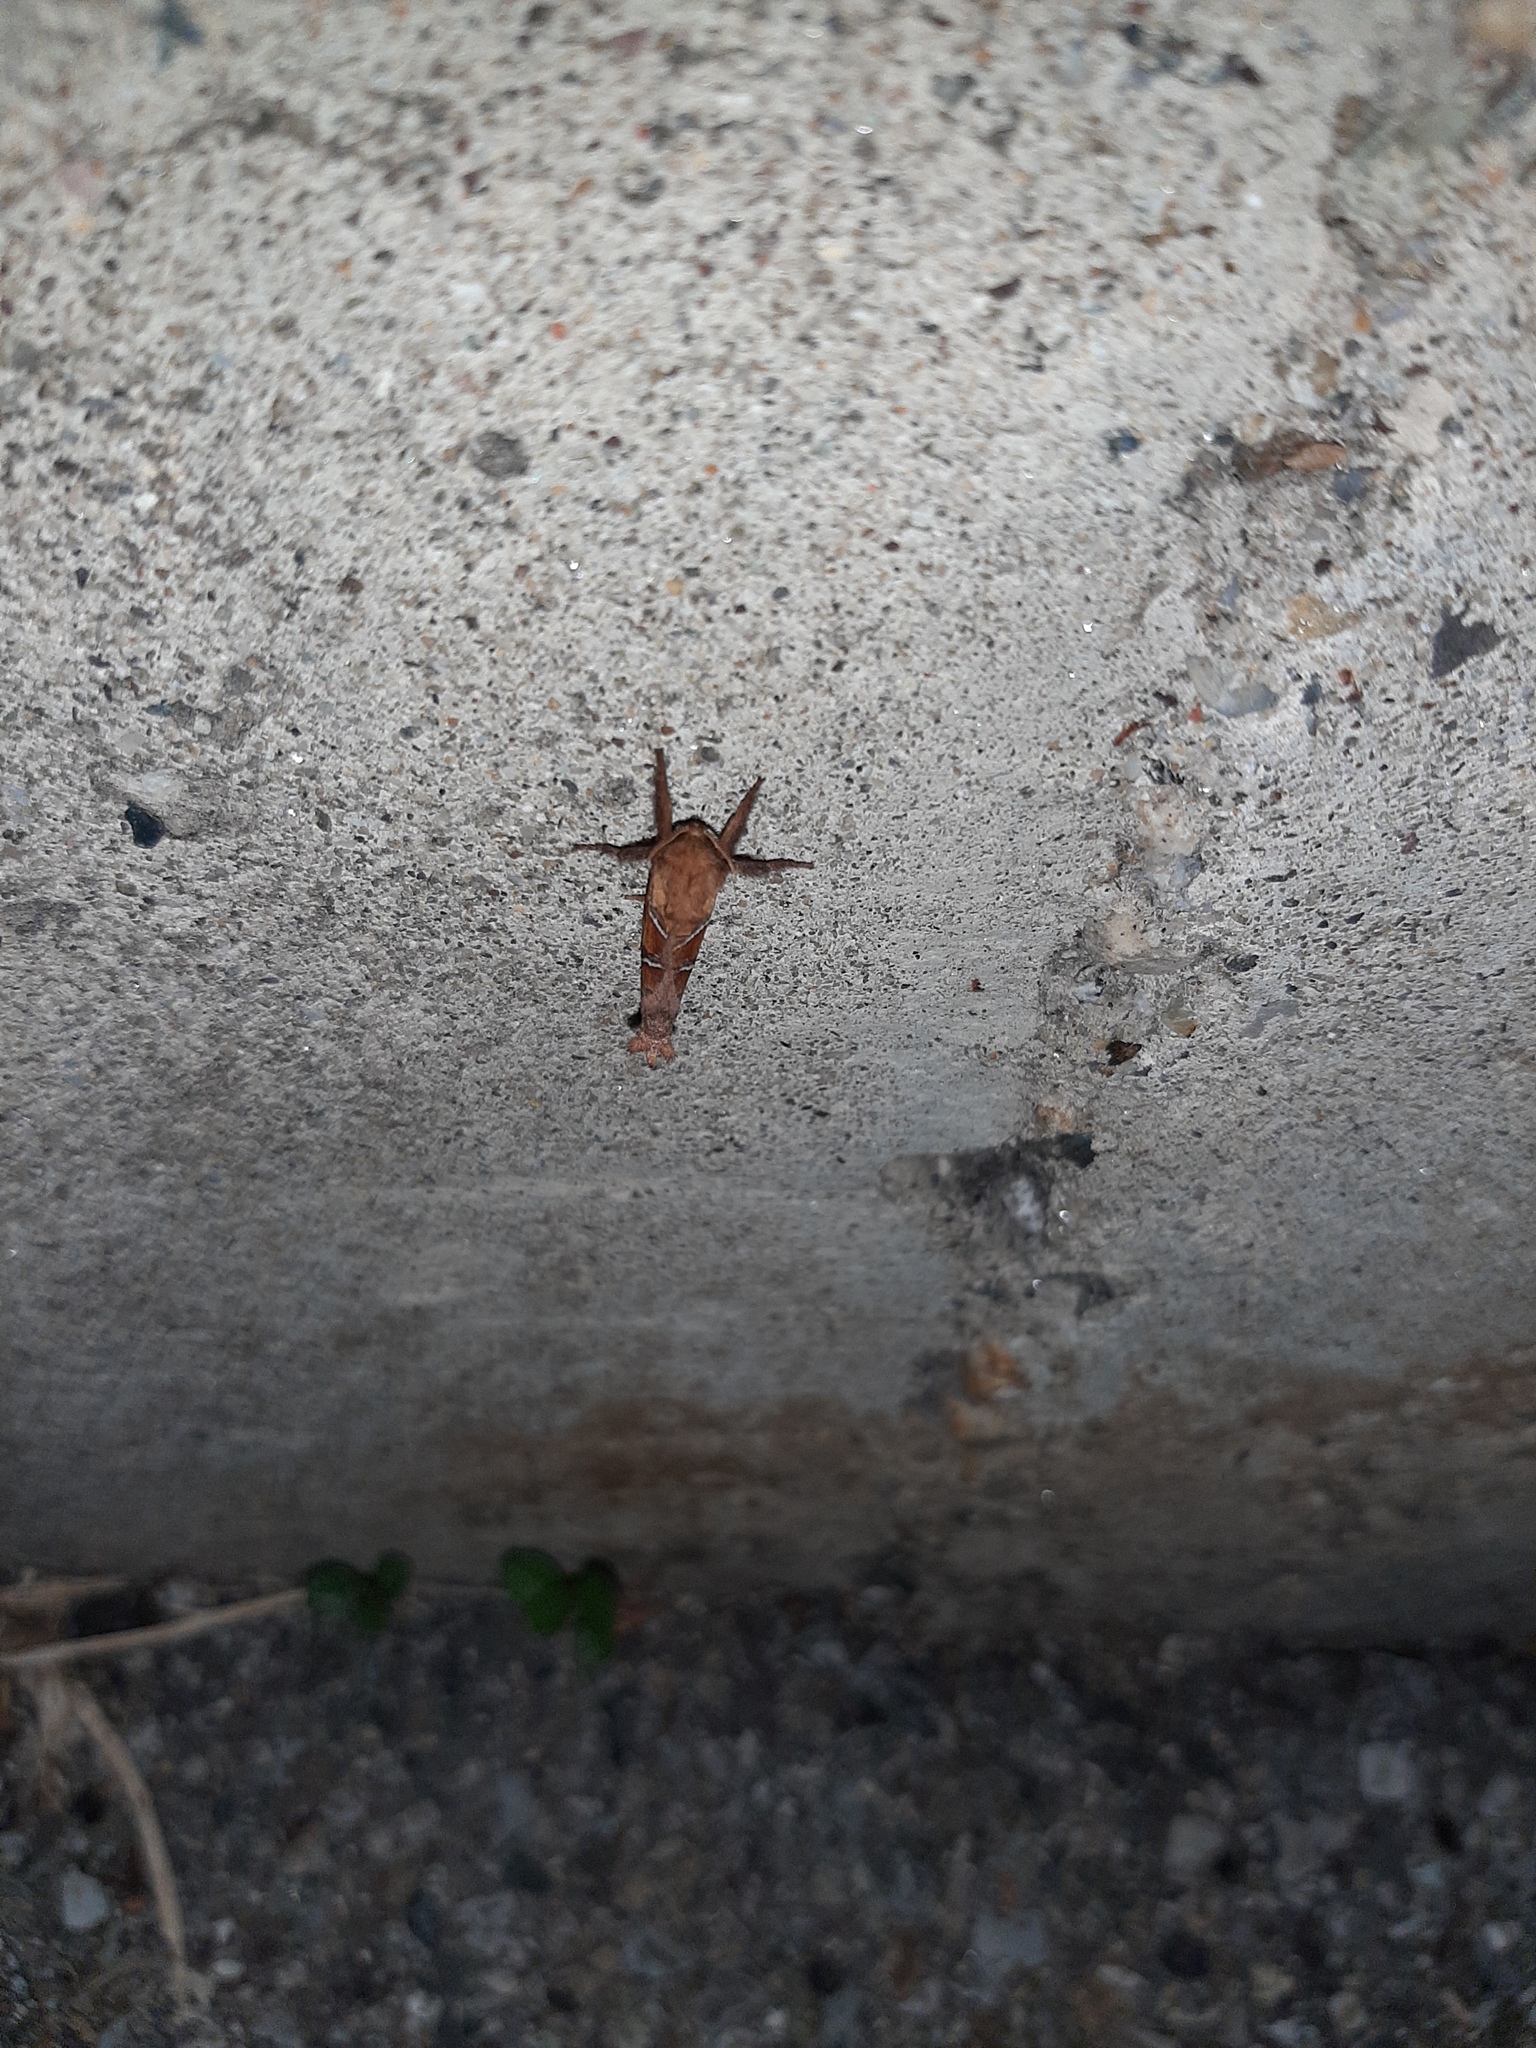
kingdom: Animalia
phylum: Arthropoda
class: Insecta
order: Lepidoptera
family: Hepialidae
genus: Triodia
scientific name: Triodia sylvina
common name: Orange swift
